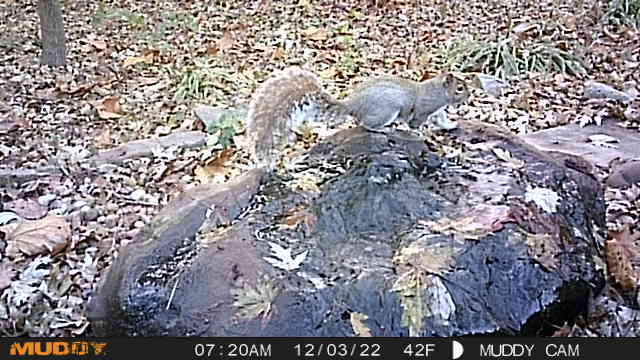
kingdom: Animalia
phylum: Chordata
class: Mammalia
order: Rodentia
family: Sciuridae
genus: Sciurus
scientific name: Sciurus carolinensis
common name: Eastern gray squirrel
